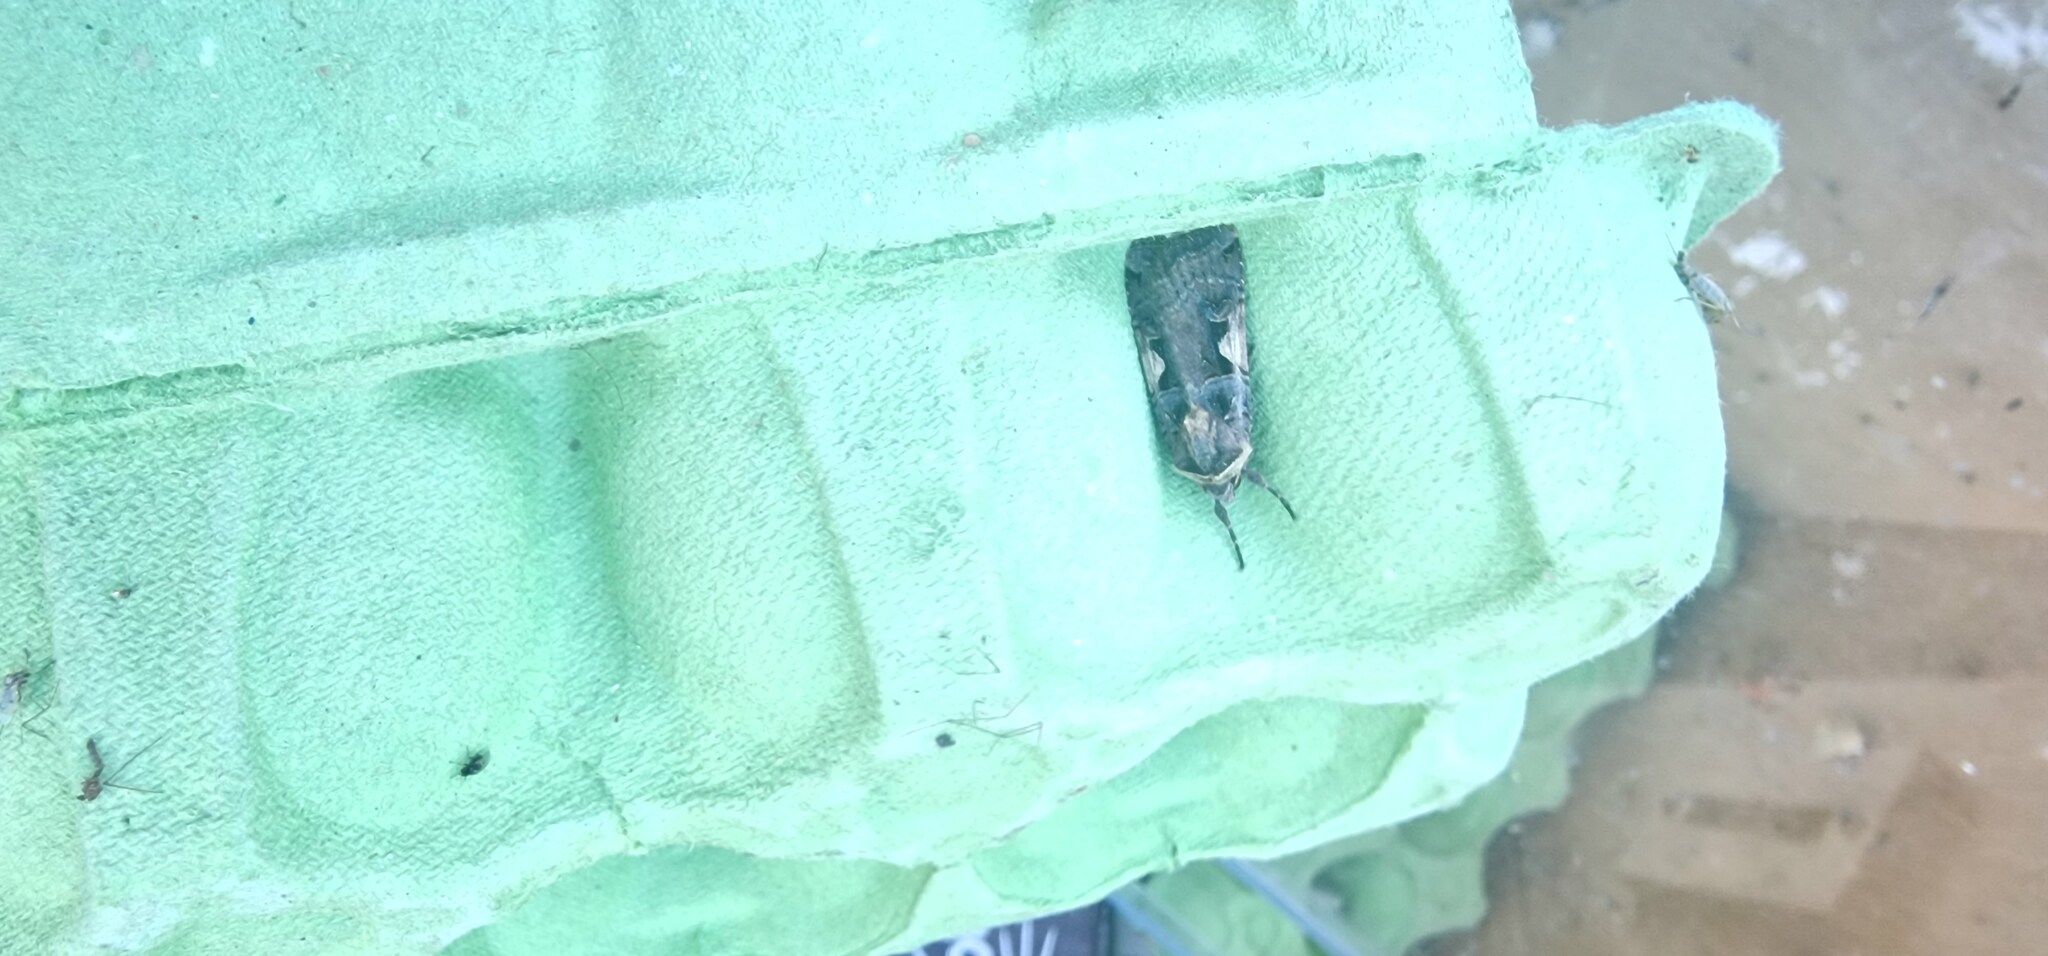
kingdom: Animalia
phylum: Arthropoda
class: Insecta
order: Lepidoptera
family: Noctuidae
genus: Xestia
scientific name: Xestia c-nigrum
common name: Setaceous hebrew character
